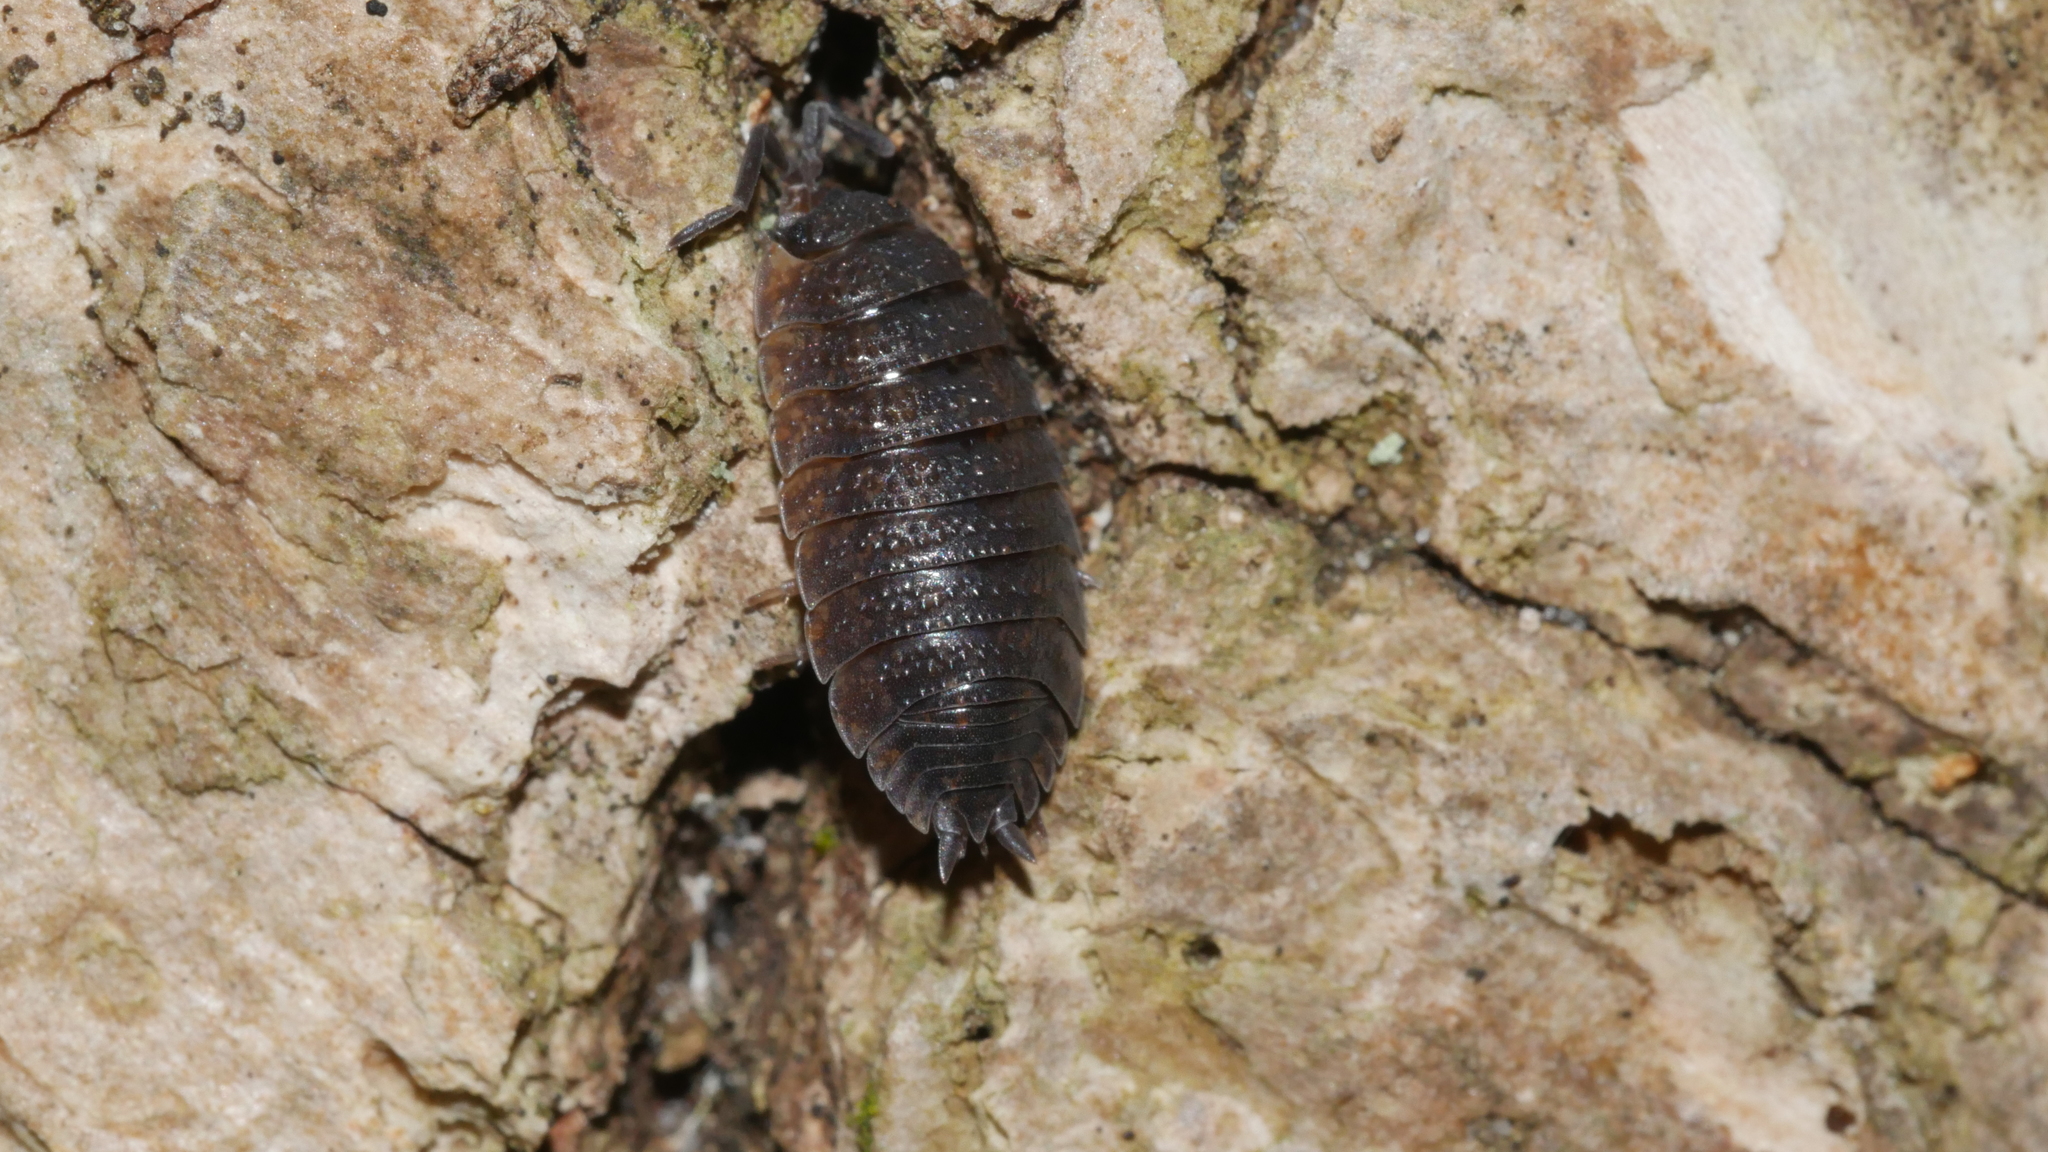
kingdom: Animalia
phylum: Arthropoda
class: Malacostraca
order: Isopoda
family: Porcellionidae
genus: Porcellio
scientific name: Porcellio scaber
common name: Common rough woodlouse
